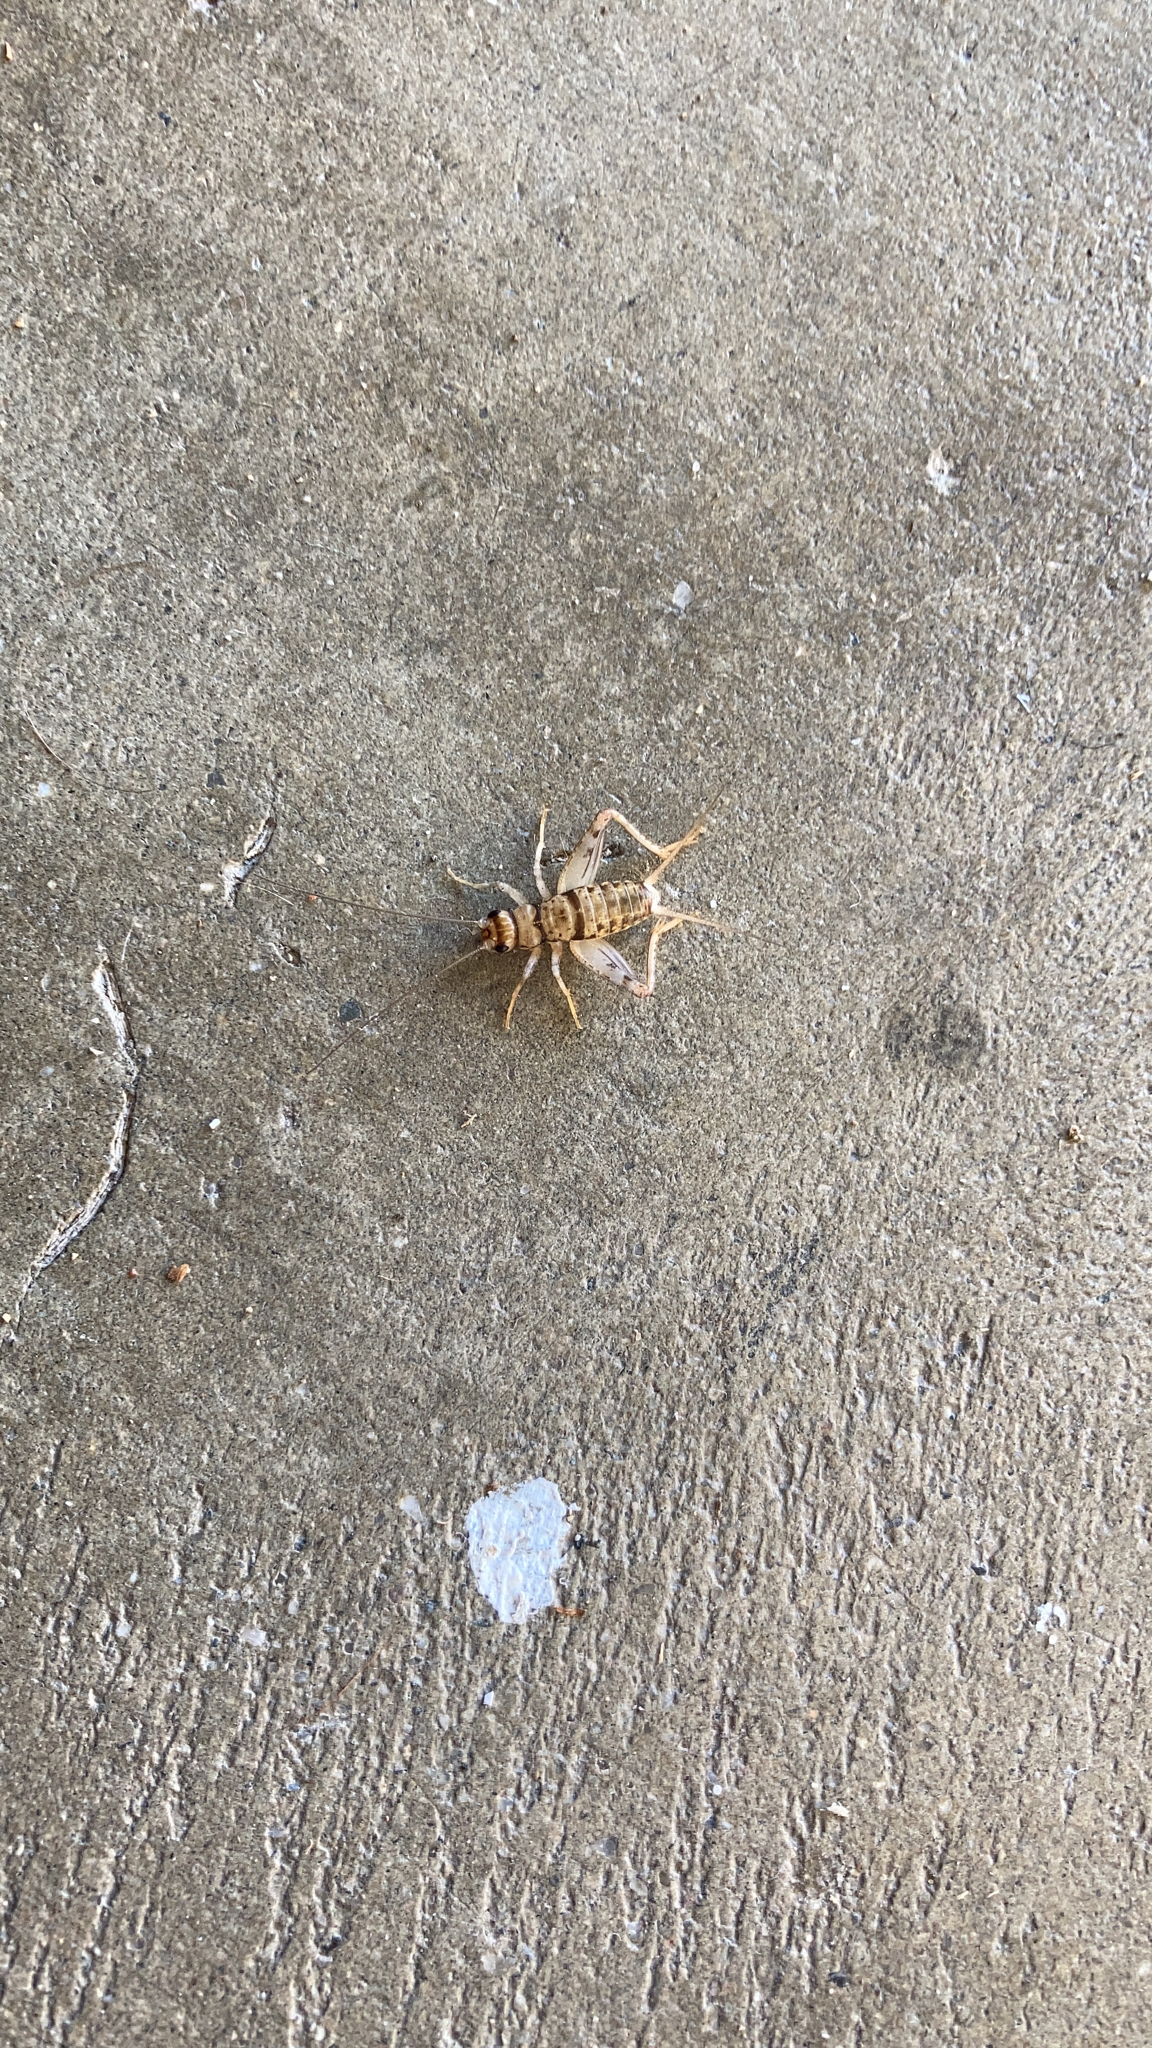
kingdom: Animalia
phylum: Arthropoda
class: Insecta
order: Orthoptera
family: Gryllidae
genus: Gryllodes
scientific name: Gryllodes sigillatus
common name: Tropical house cricket
